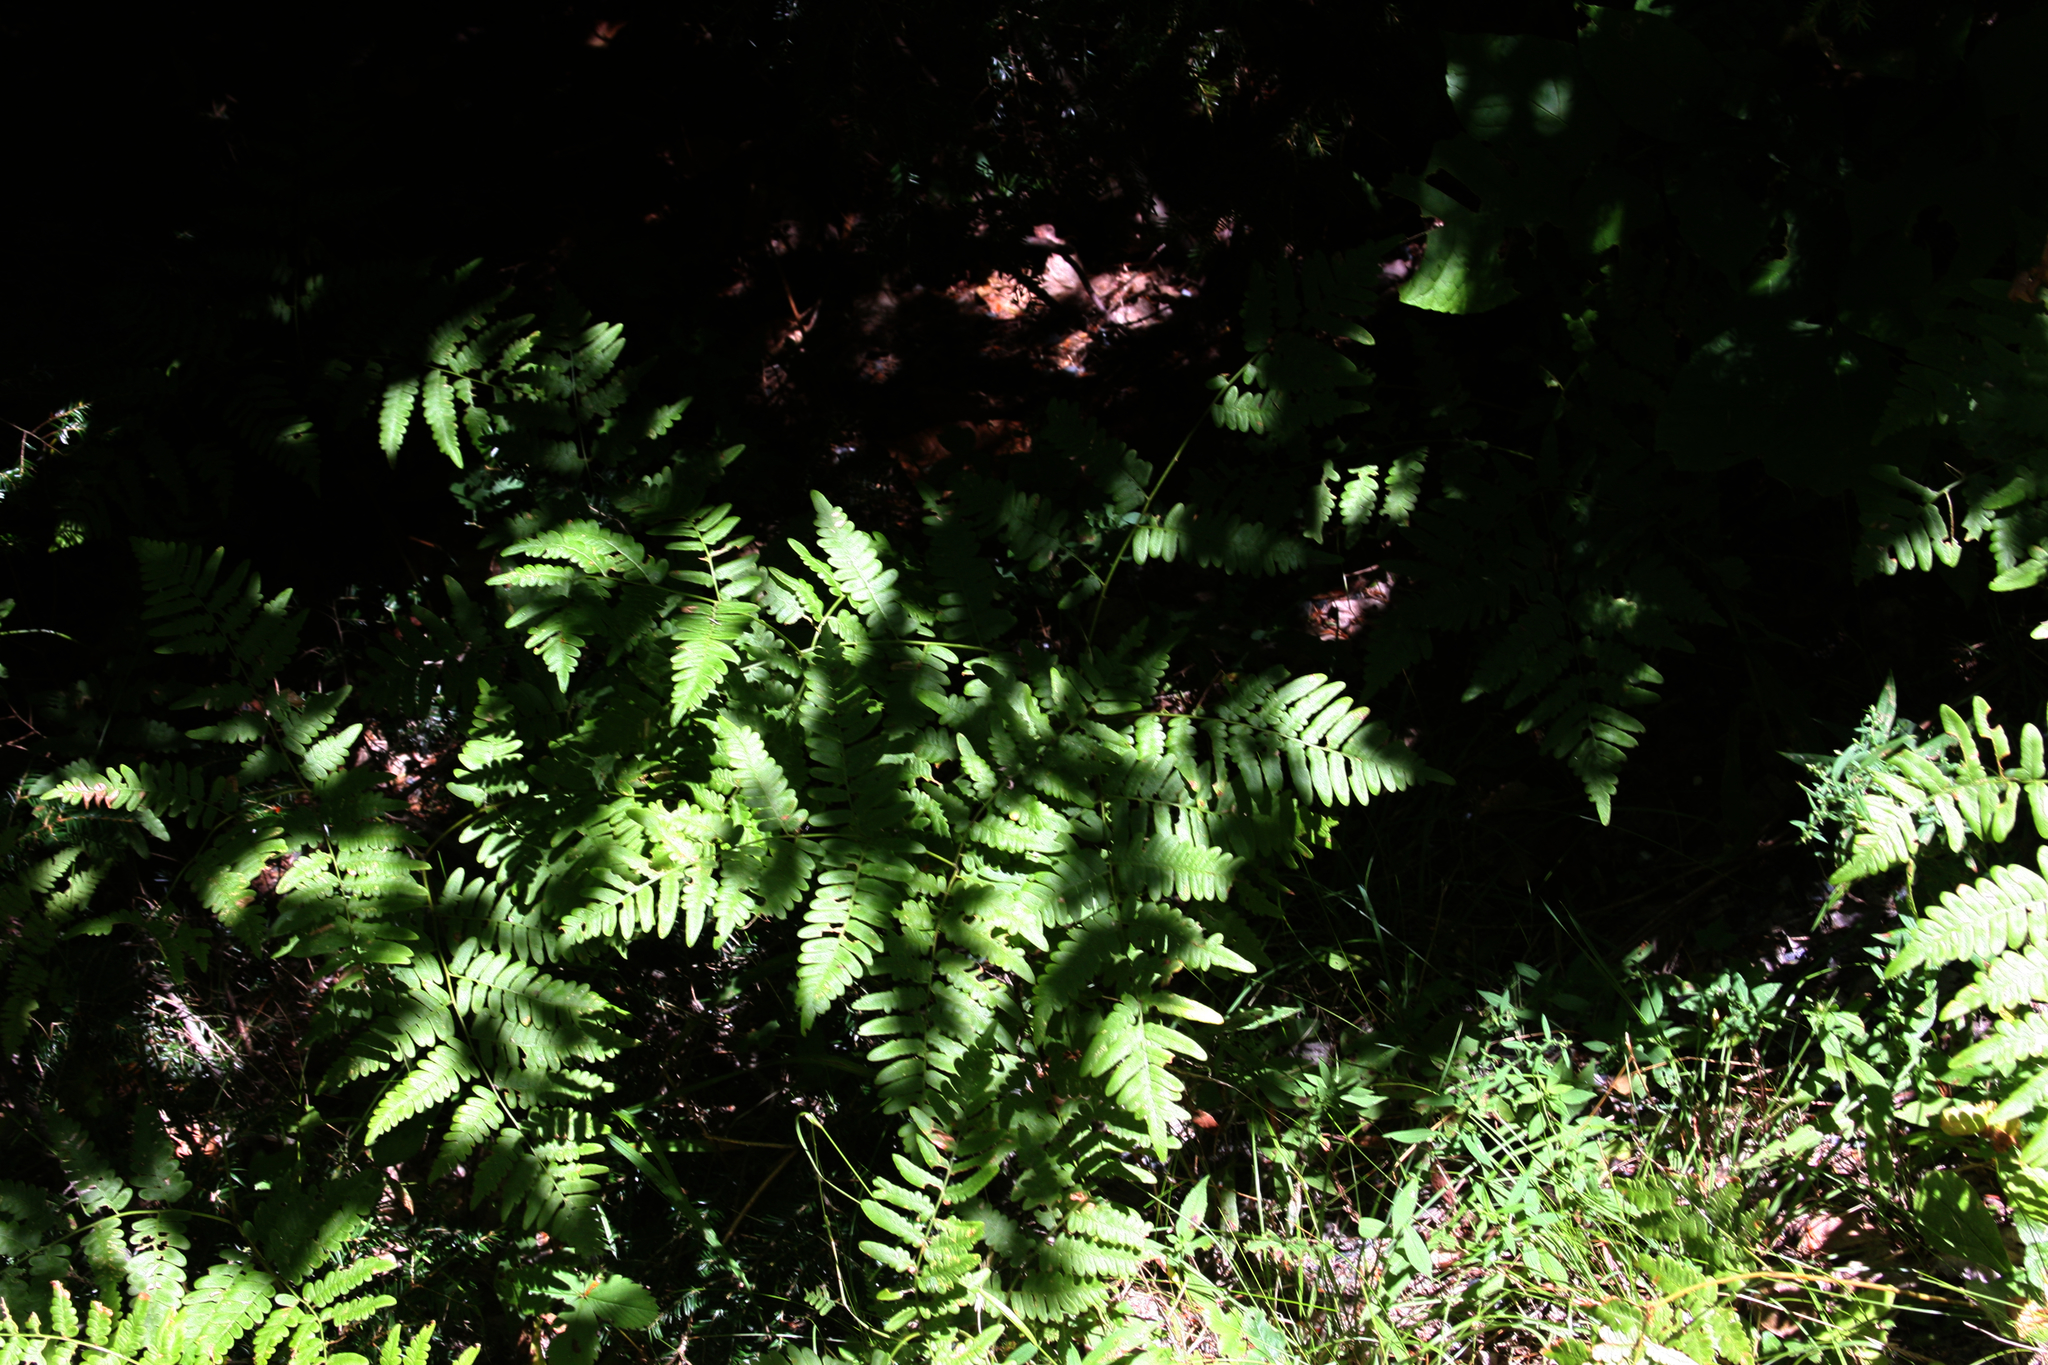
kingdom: Plantae
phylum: Tracheophyta
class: Polypodiopsida
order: Polypodiales
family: Dennstaedtiaceae
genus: Pteridium
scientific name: Pteridium aquilinum
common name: Bracken
